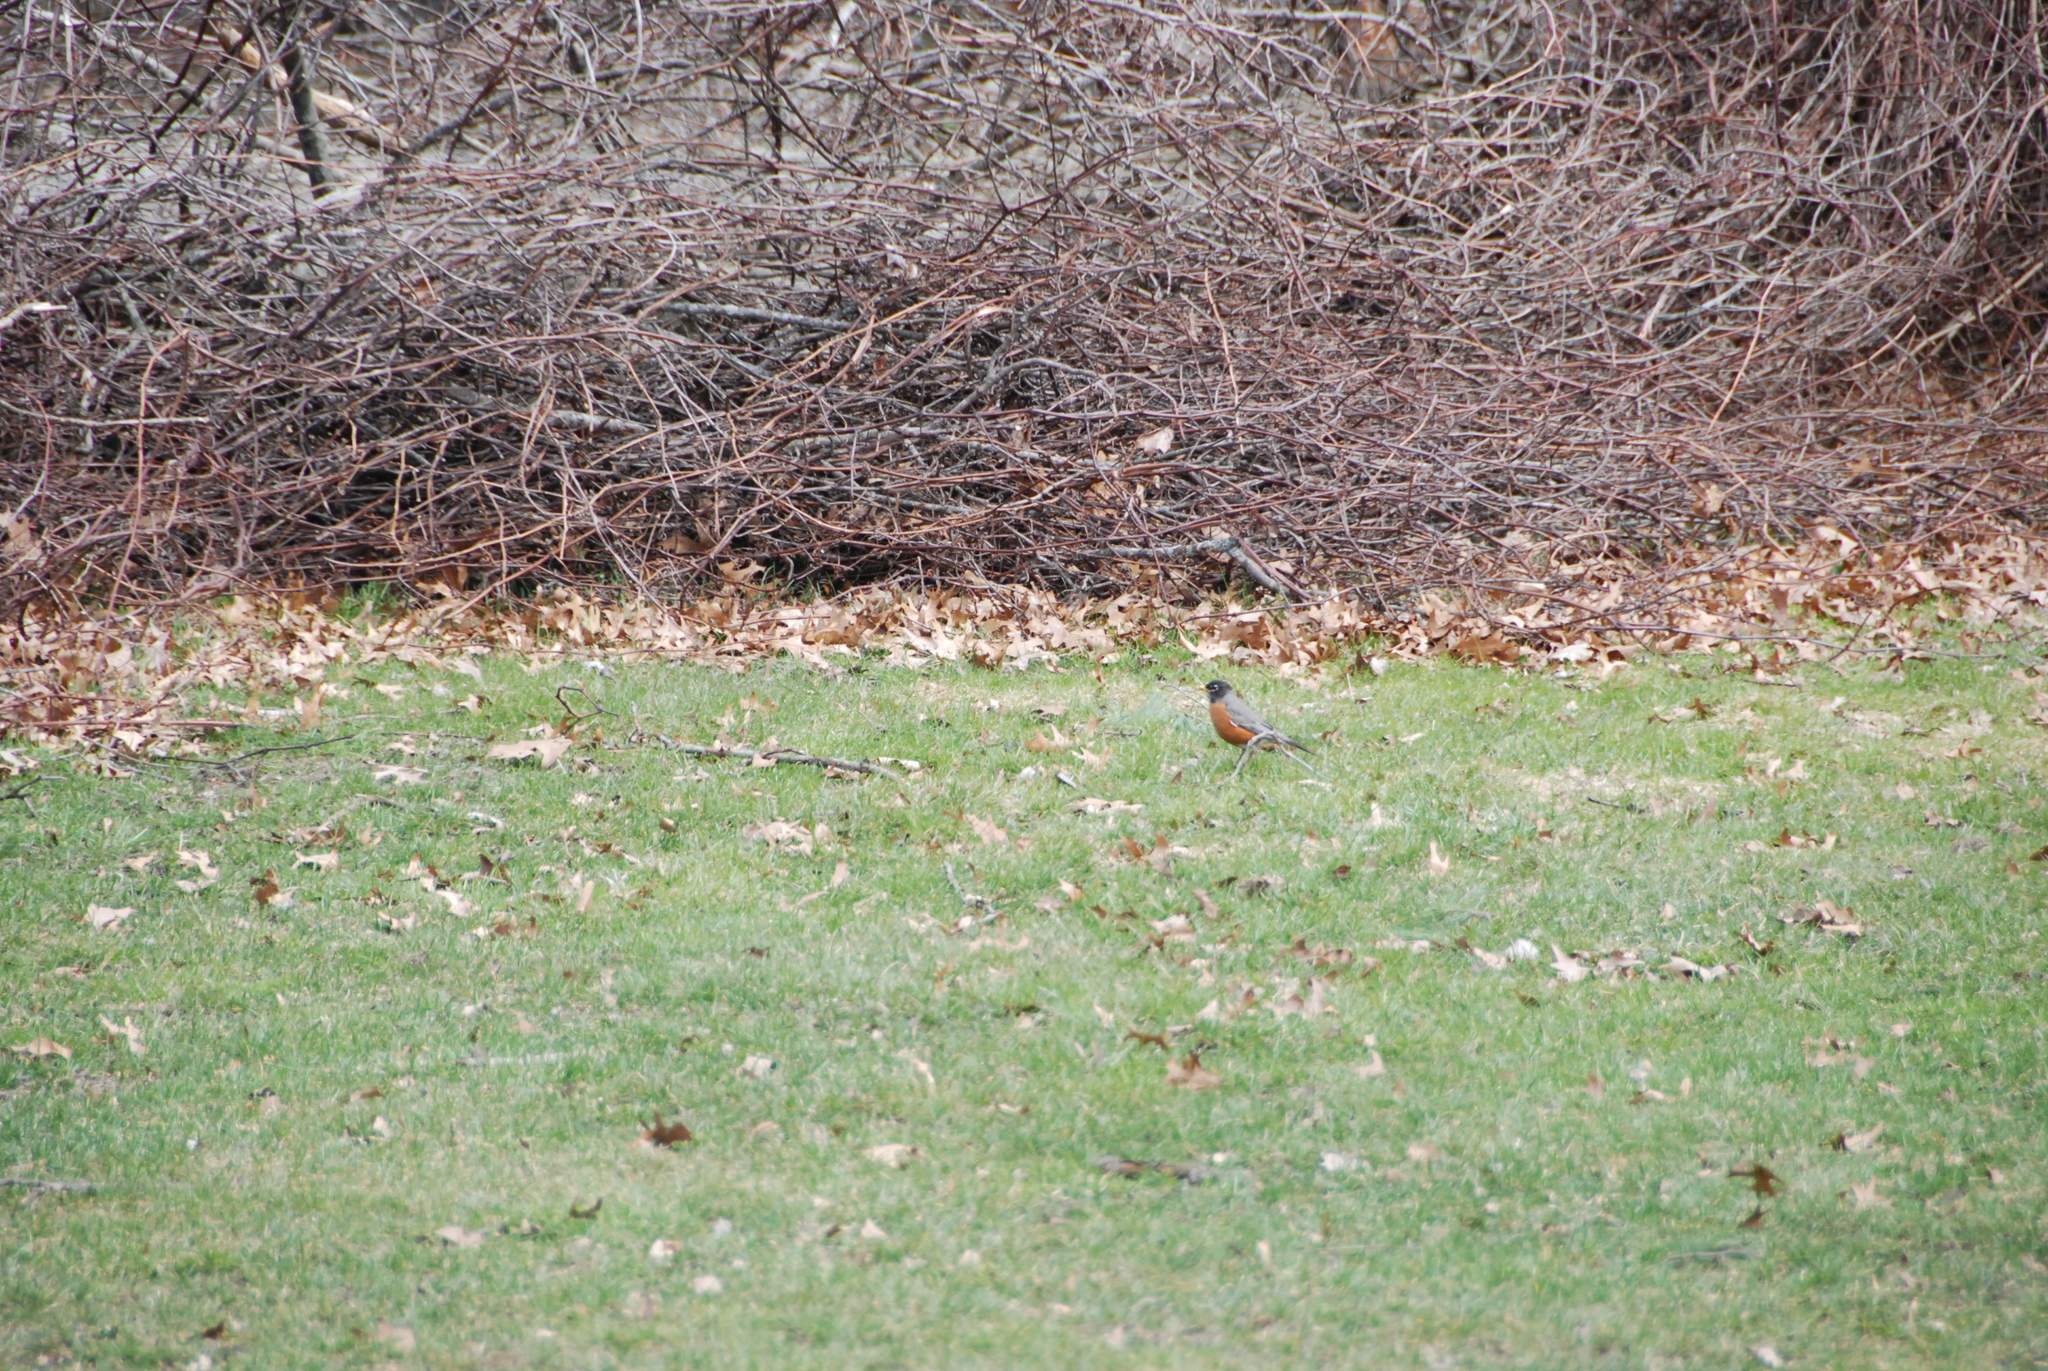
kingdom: Animalia
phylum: Chordata
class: Aves
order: Passeriformes
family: Turdidae
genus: Turdus
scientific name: Turdus migratorius
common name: American robin
